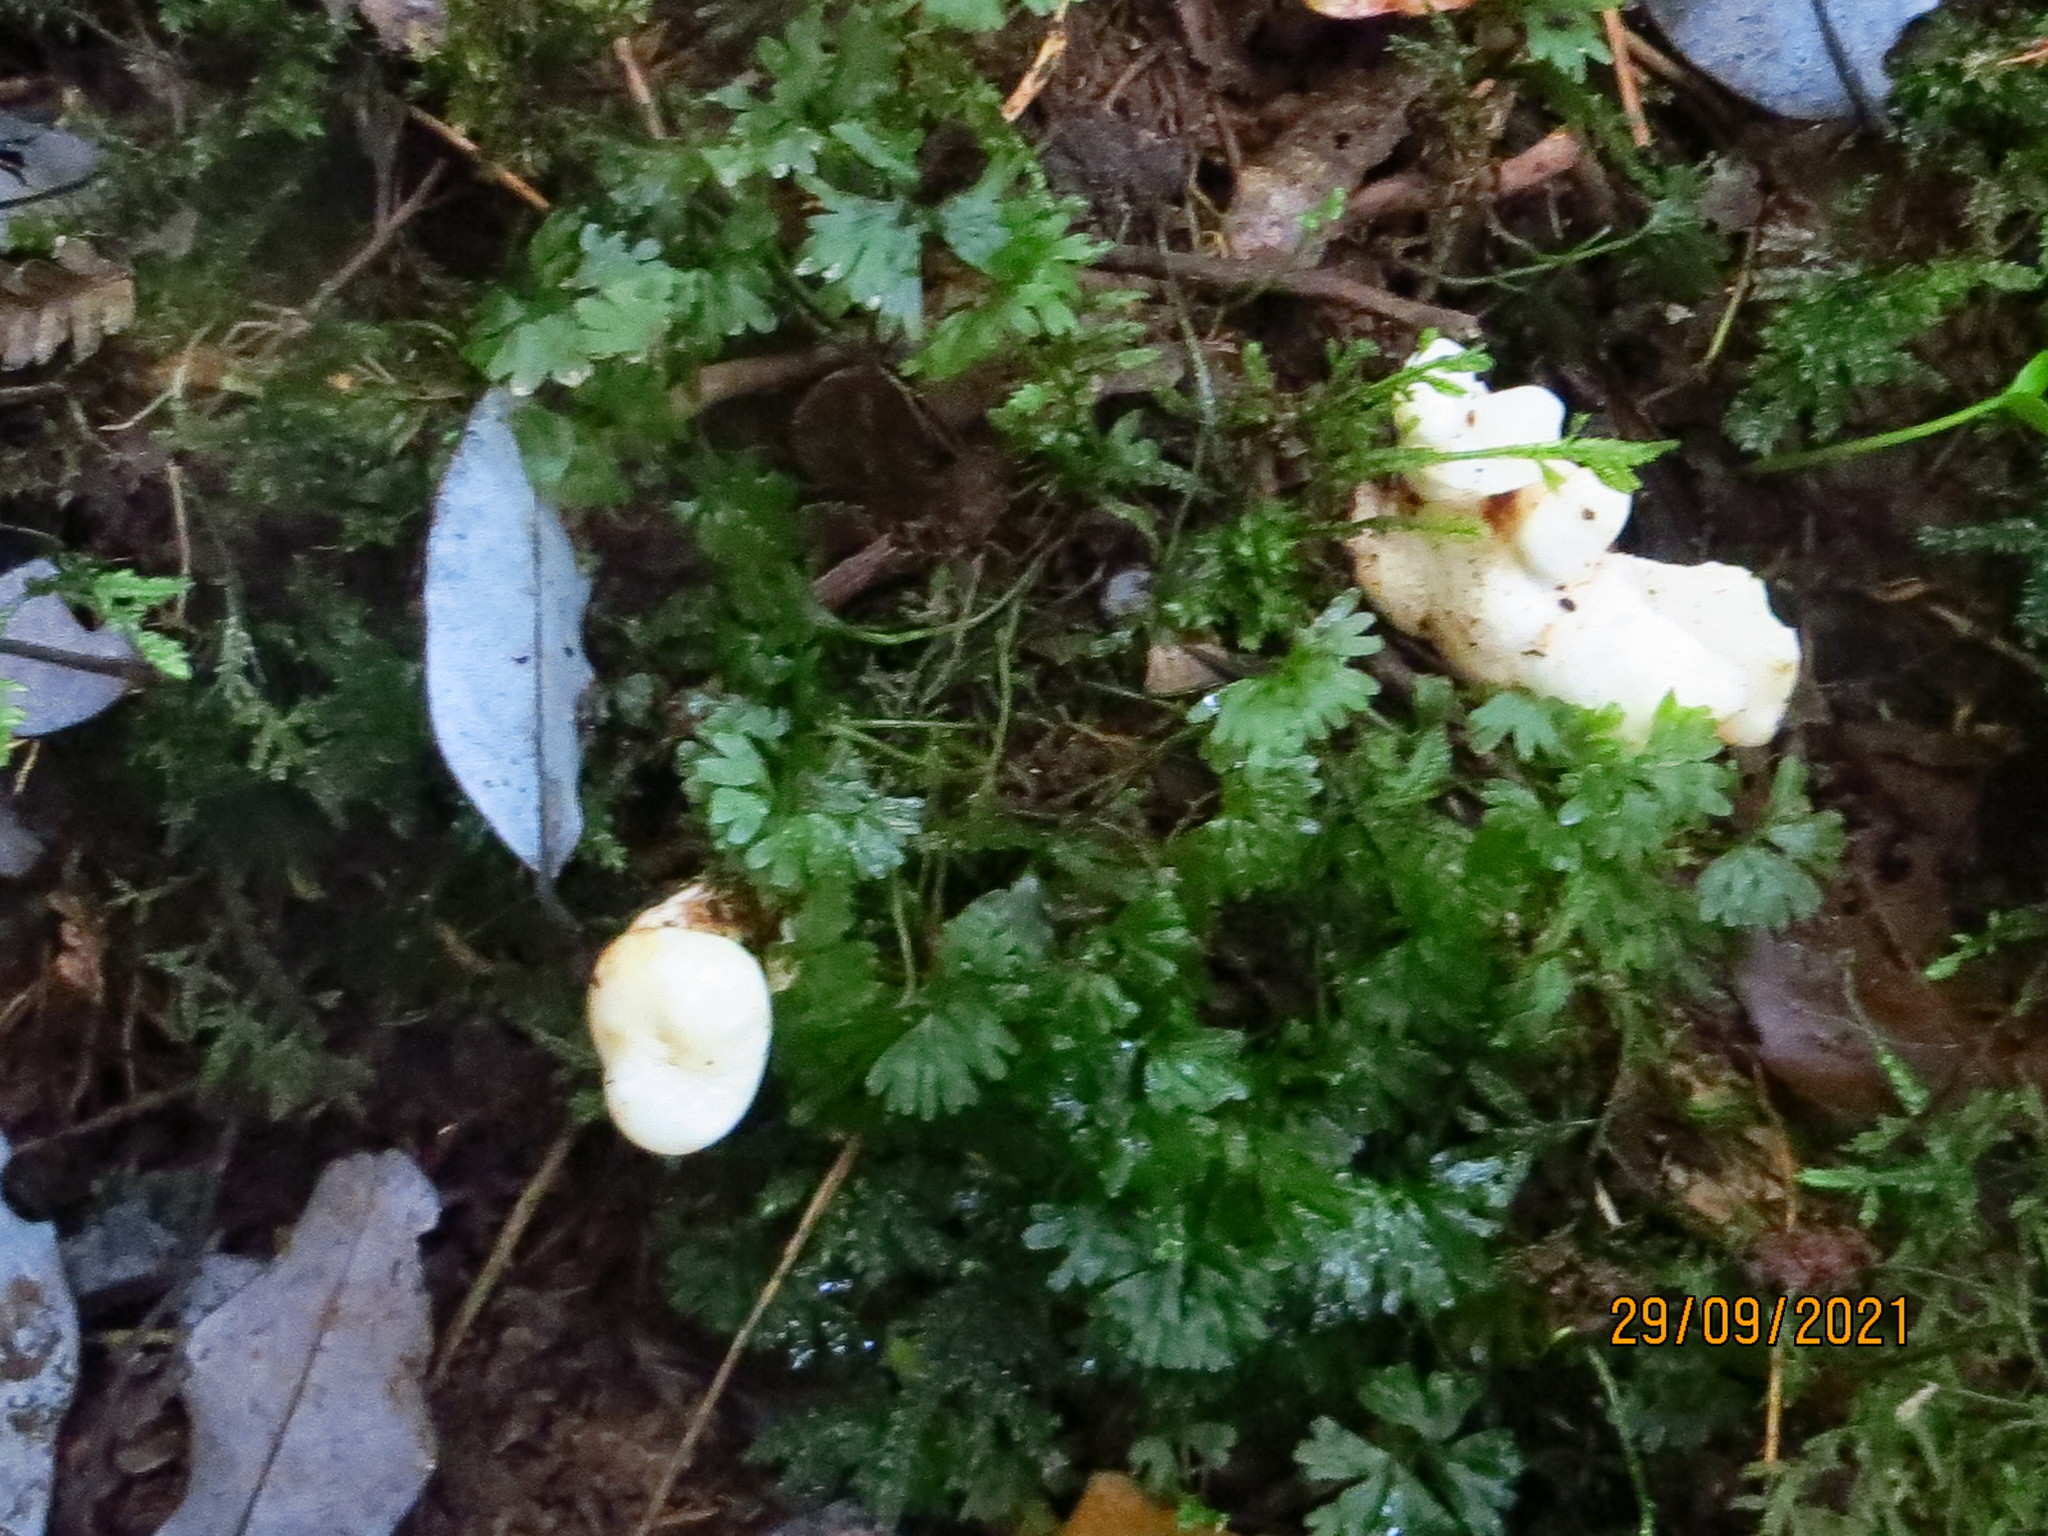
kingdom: Fungi
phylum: Basidiomycota
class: Agaricomycetes
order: Hysterangiales
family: Trappeaceae
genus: Phallobata
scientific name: Phallobata alba
